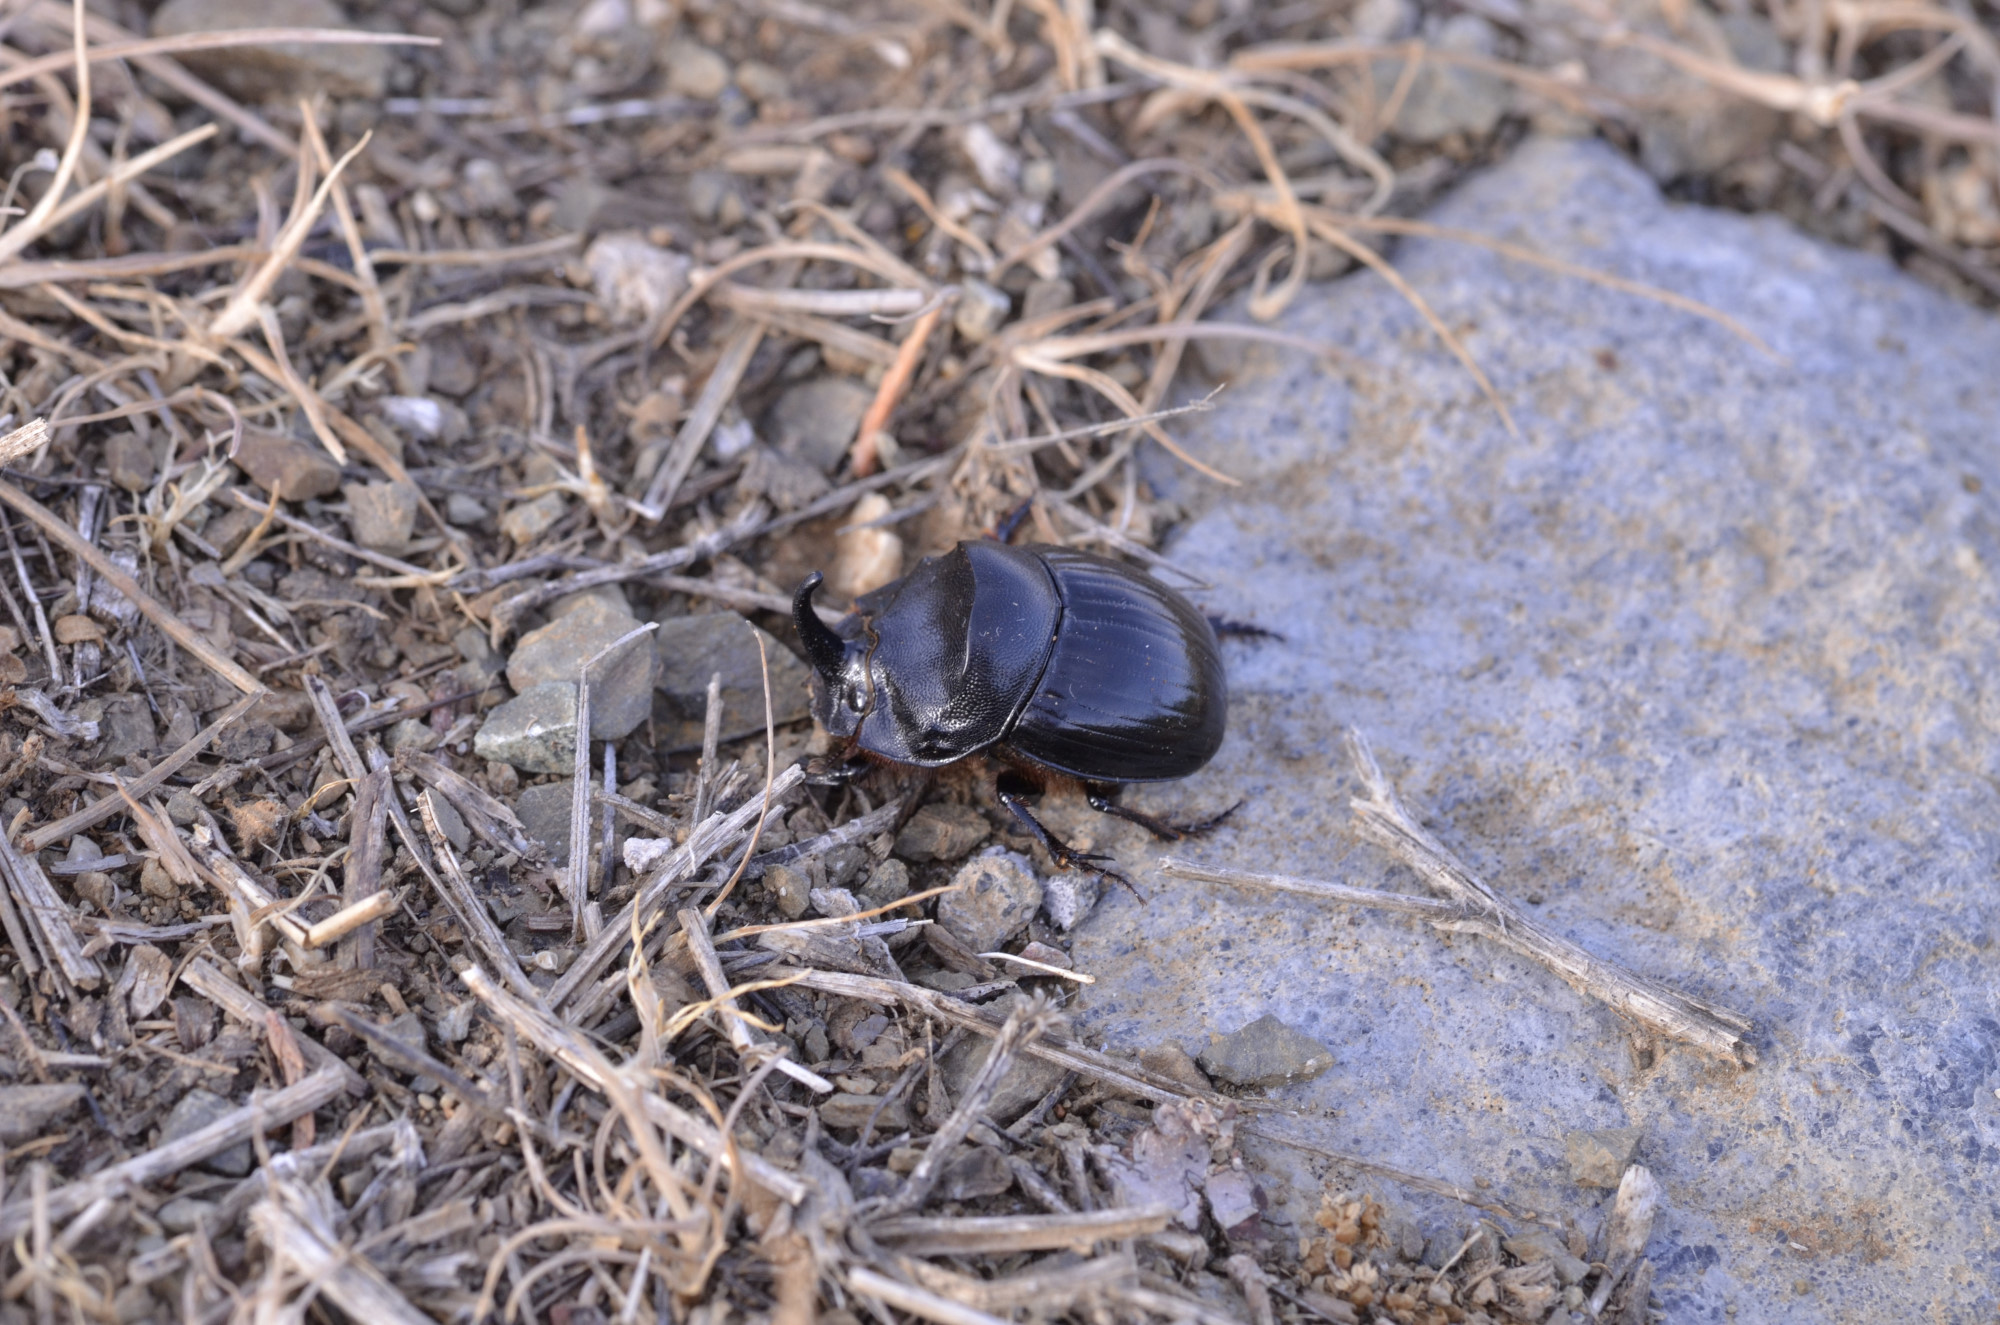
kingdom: Animalia
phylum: Arthropoda
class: Insecta
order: Coleoptera
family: Scarabaeidae
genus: Copris
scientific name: Copris hispanus
